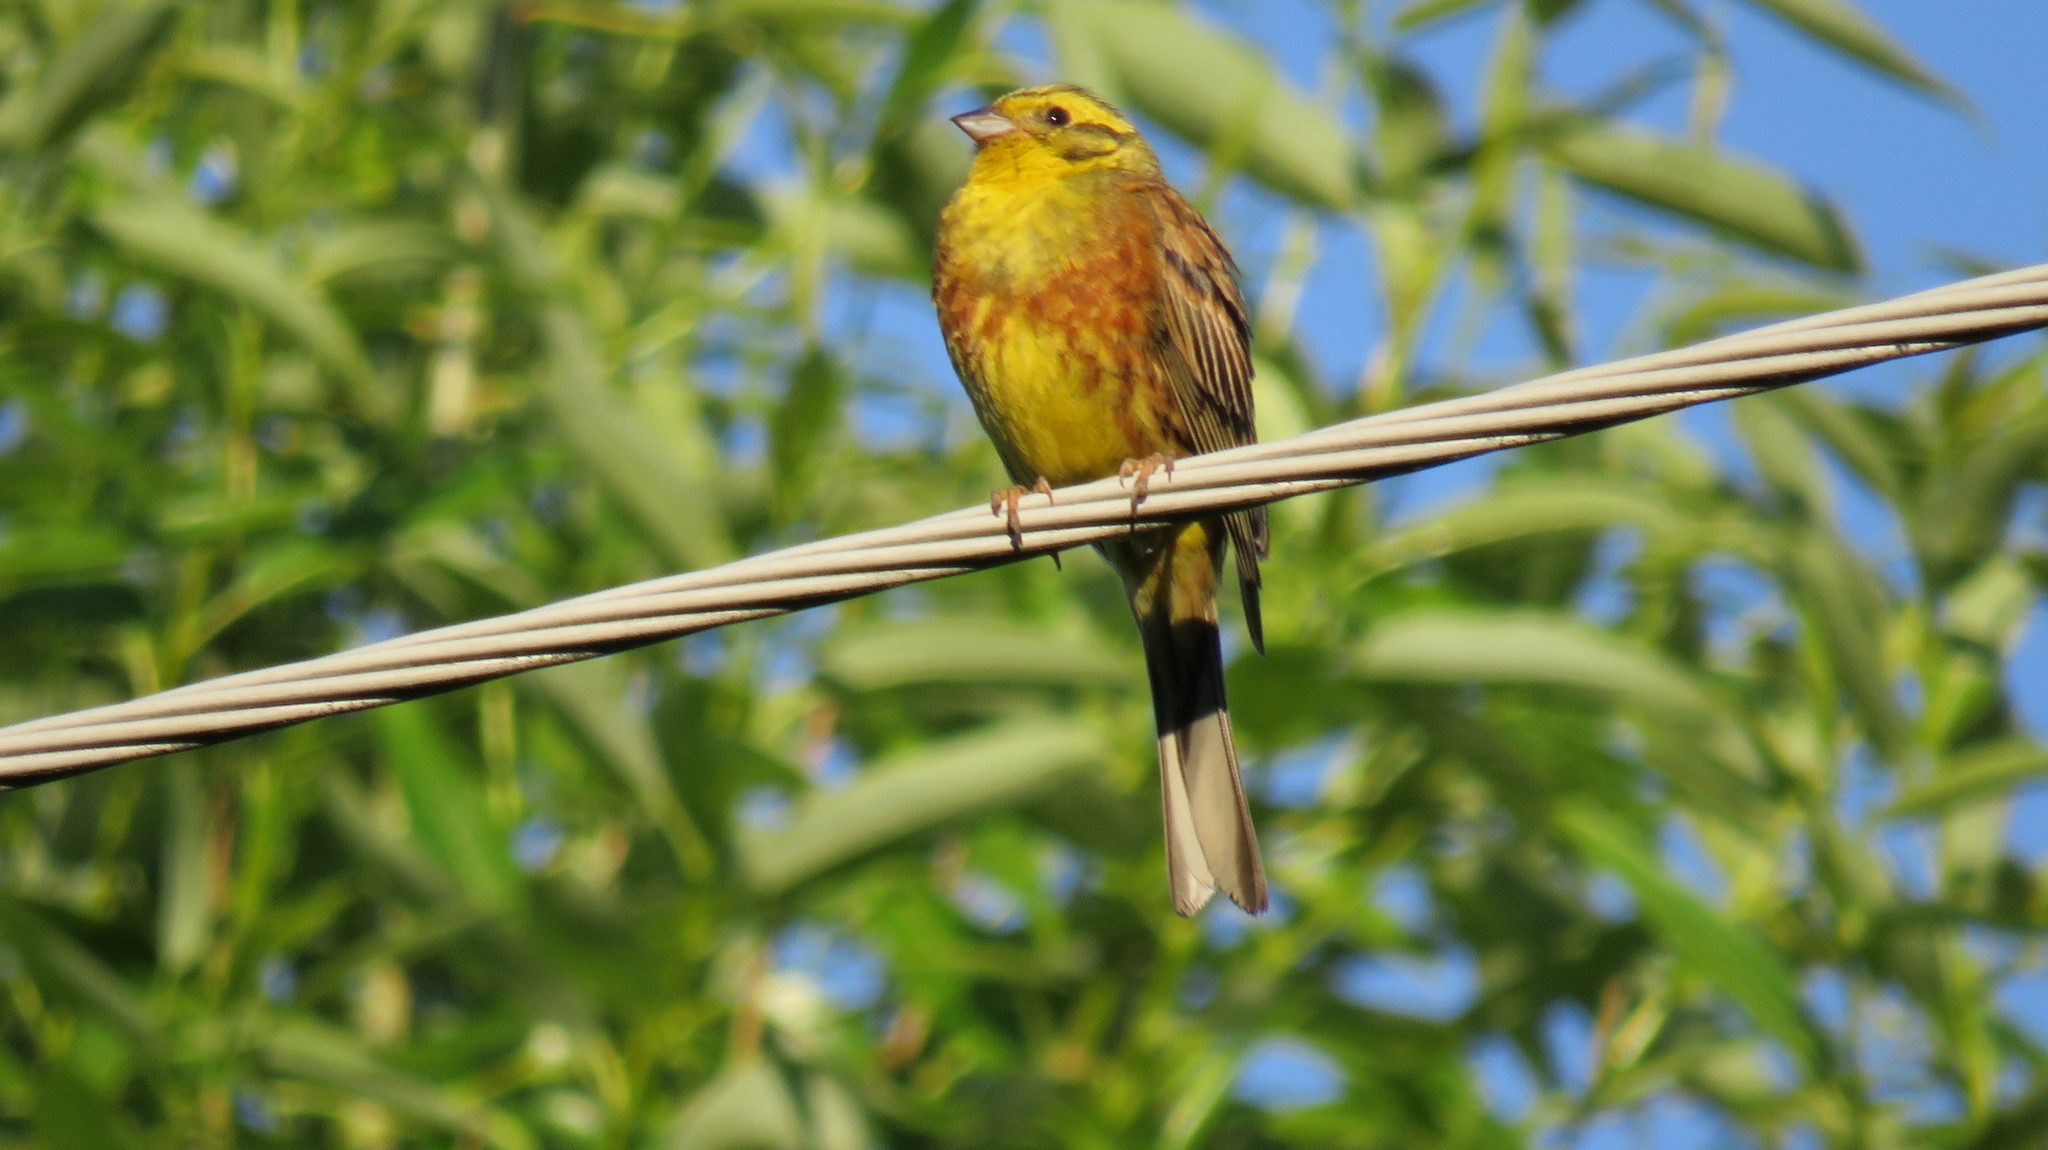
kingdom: Animalia
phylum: Chordata
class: Aves
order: Passeriformes
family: Emberizidae
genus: Emberiza
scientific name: Emberiza citrinella
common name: Yellowhammer
